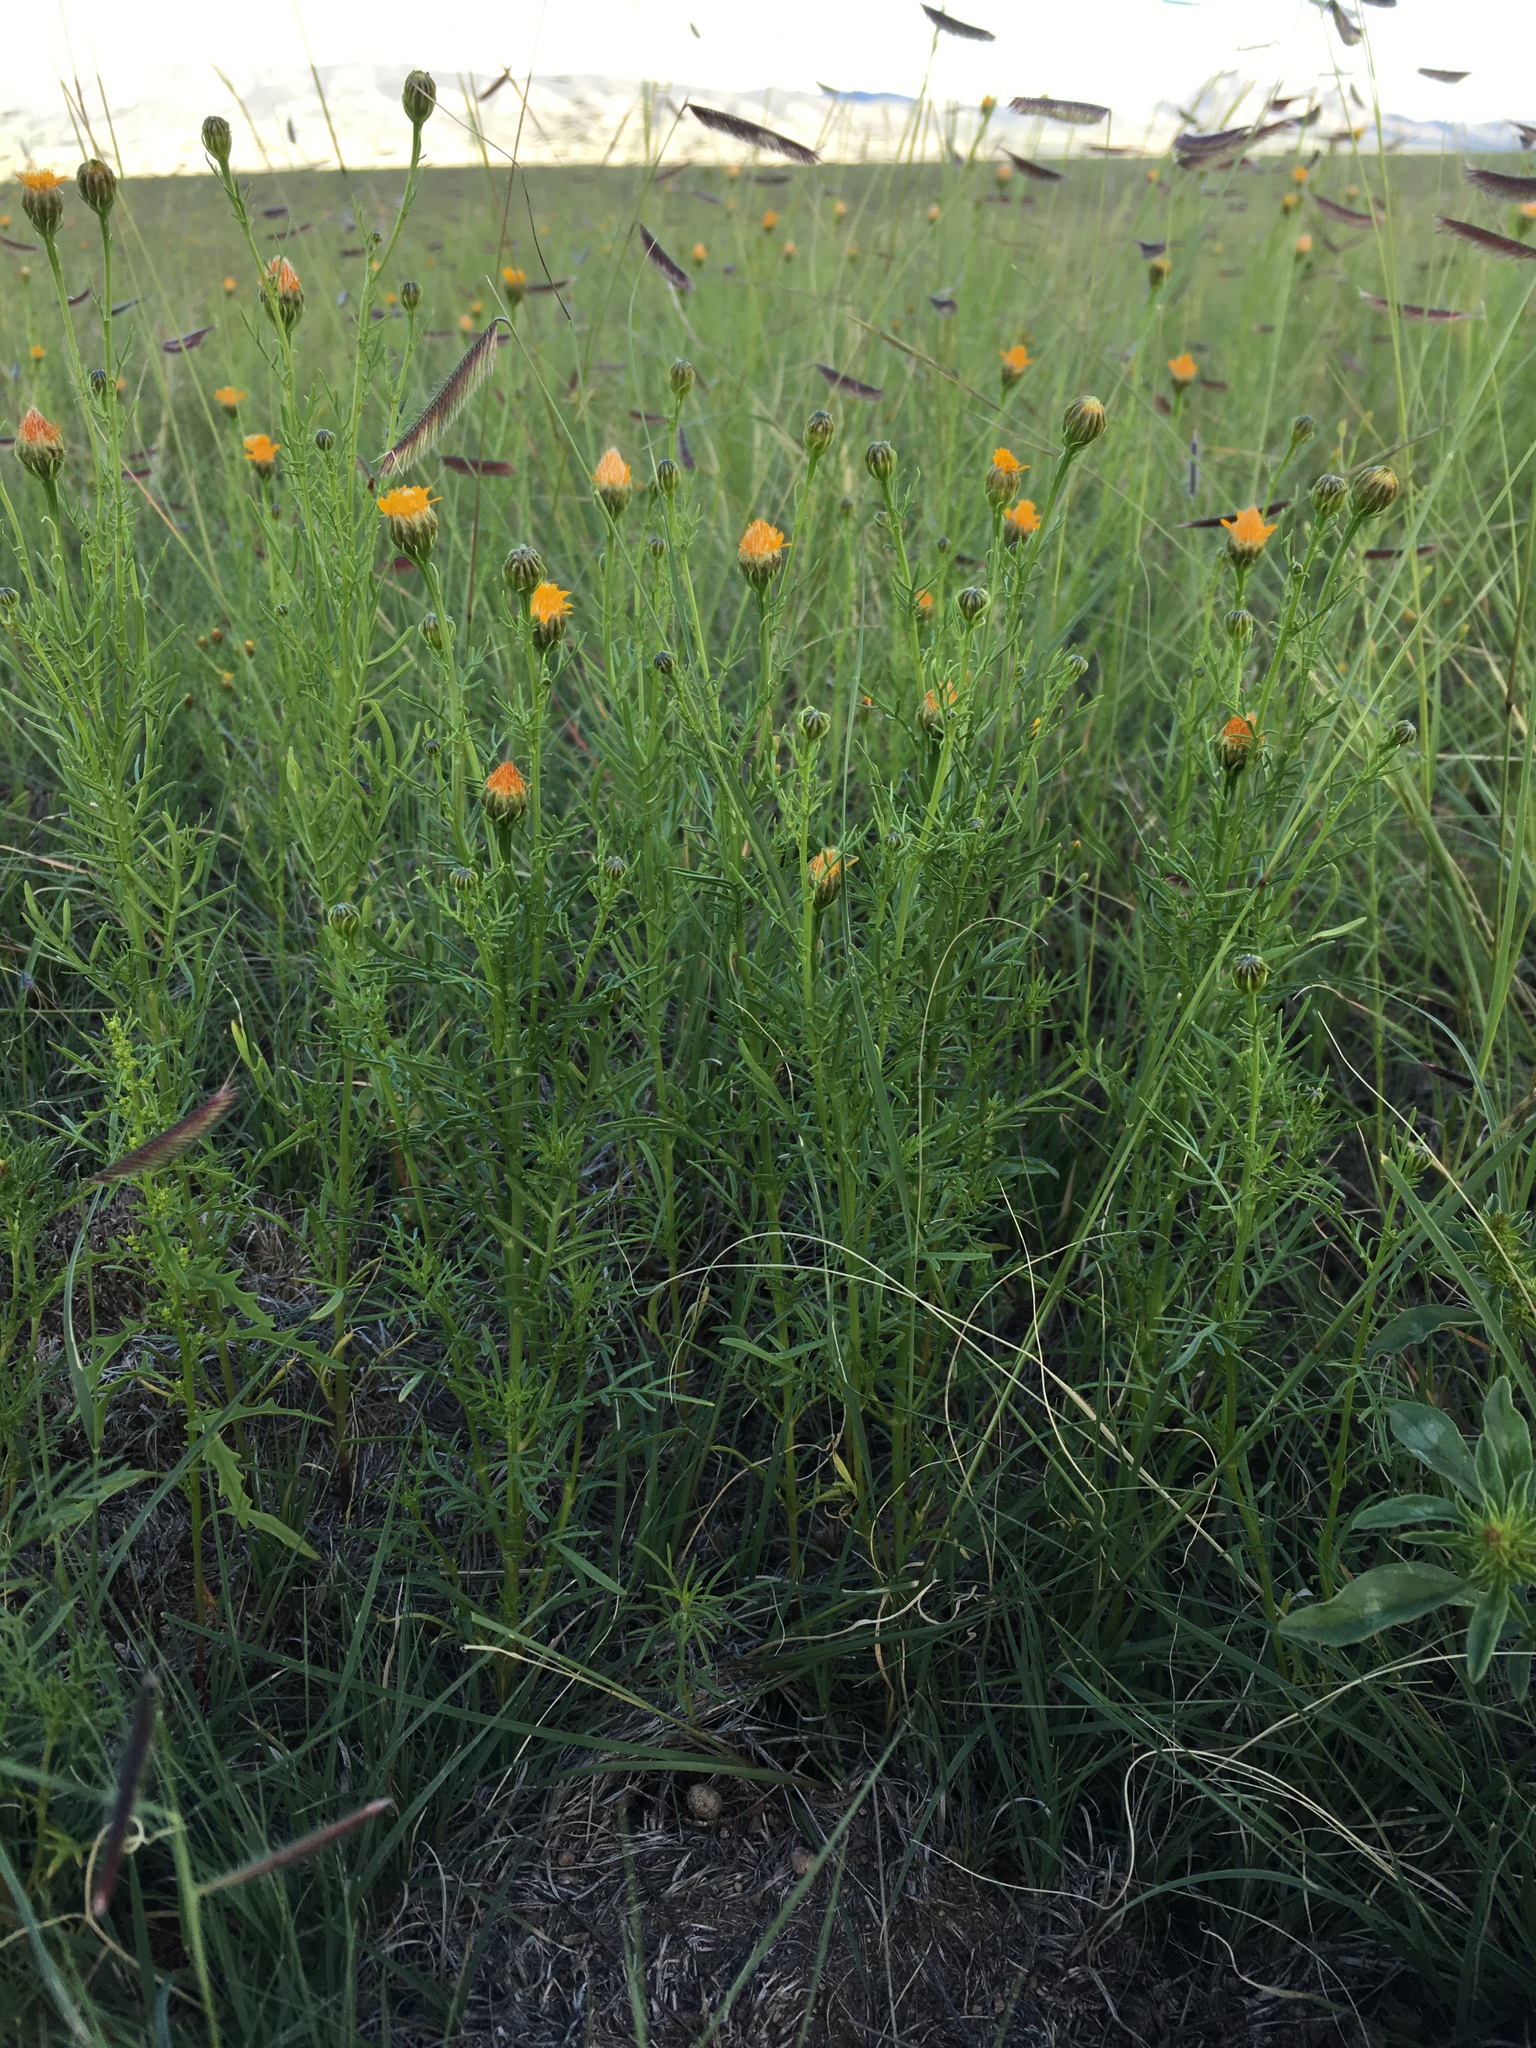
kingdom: Plantae
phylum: Tracheophyta
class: Magnoliopsida
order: Asterales
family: Asteraceae
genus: Adenophyllum
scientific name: Adenophyllum wrightii
